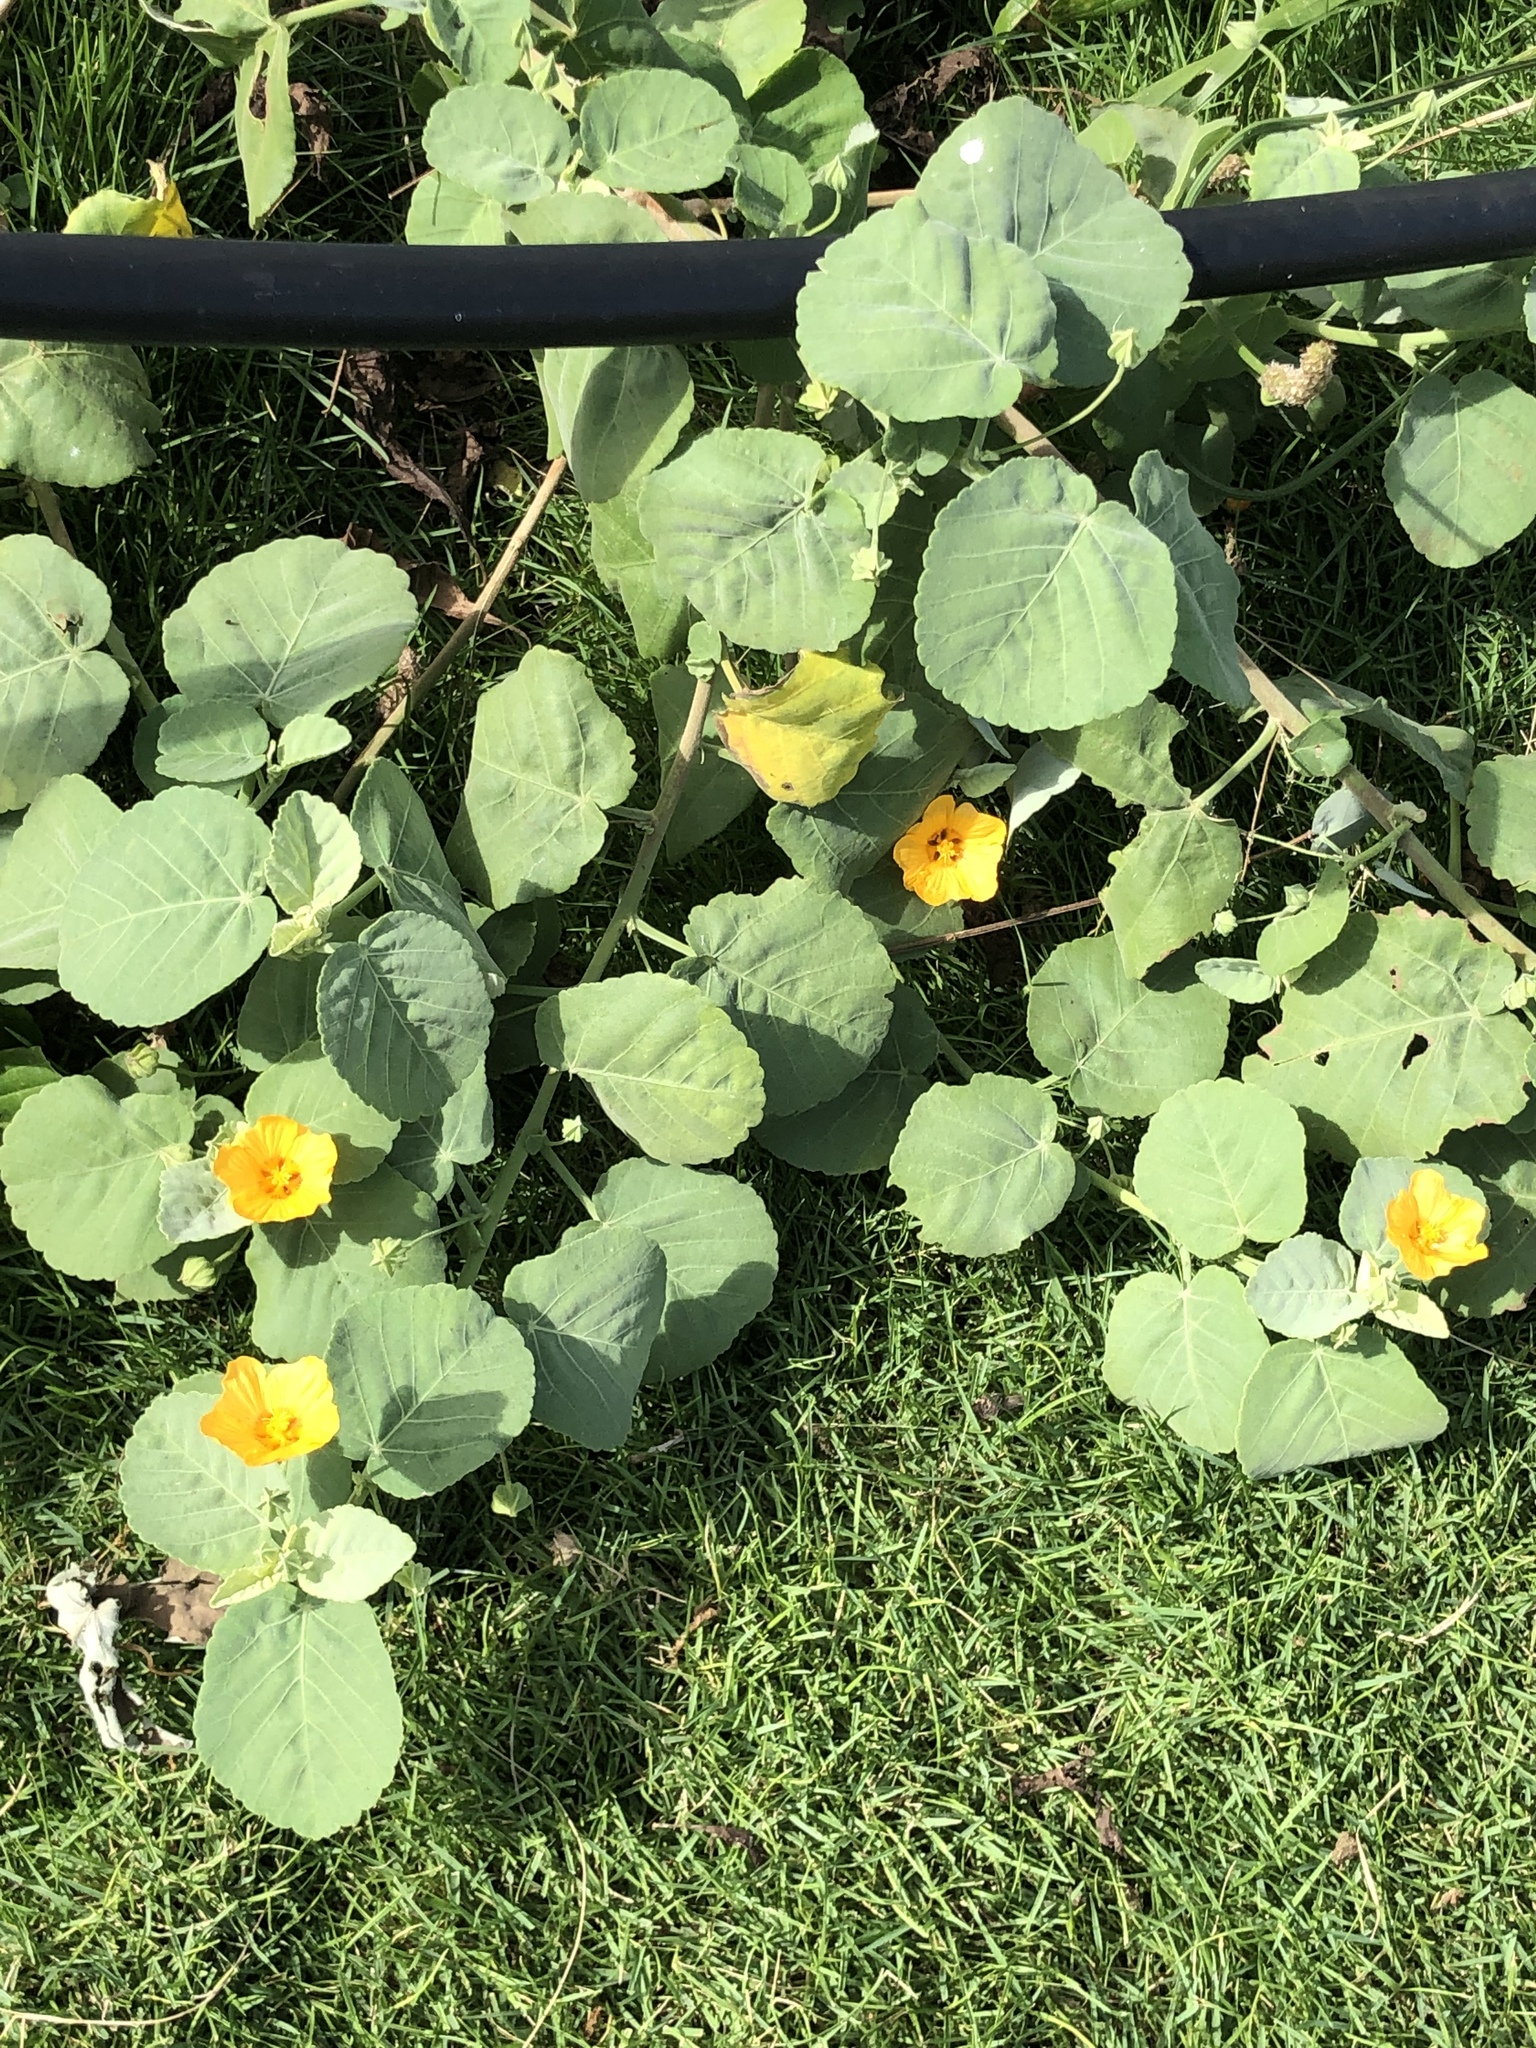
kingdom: Plantae
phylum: Tracheophyta
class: Magnoliopsida
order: Malvales
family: Malvaceae
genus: Sida
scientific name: Sida fallax
